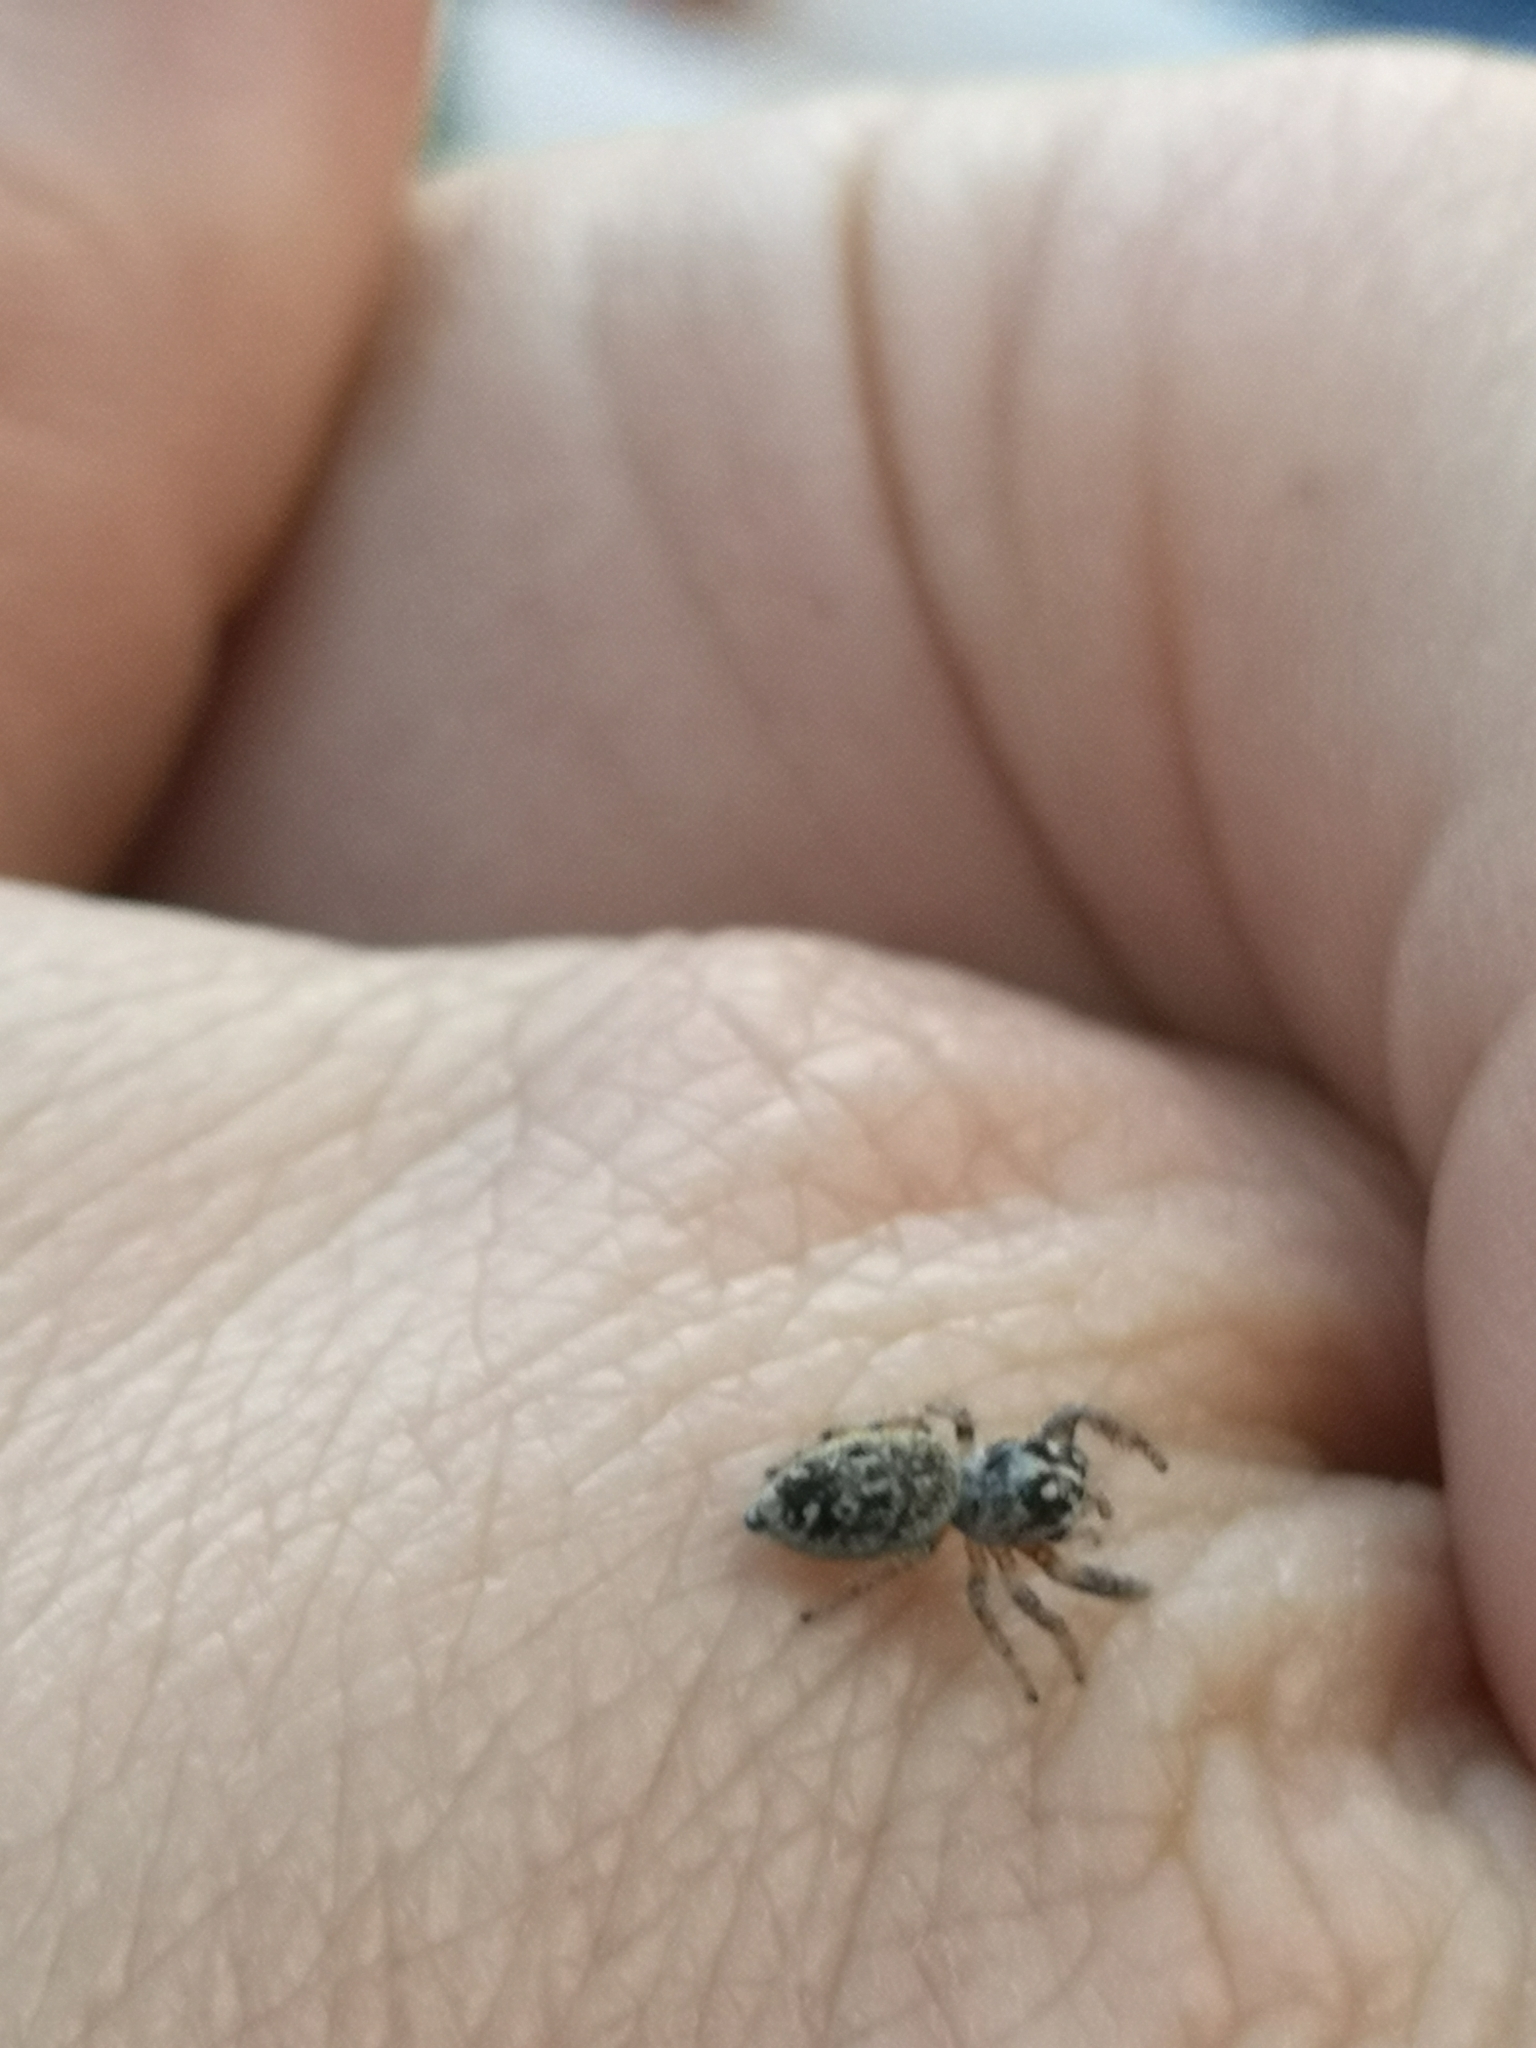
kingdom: Animalia
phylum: Arthropoda
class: Arachnida
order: Araneae
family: Salticidae
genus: Macaroeris
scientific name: Macaroeris nidicolens
